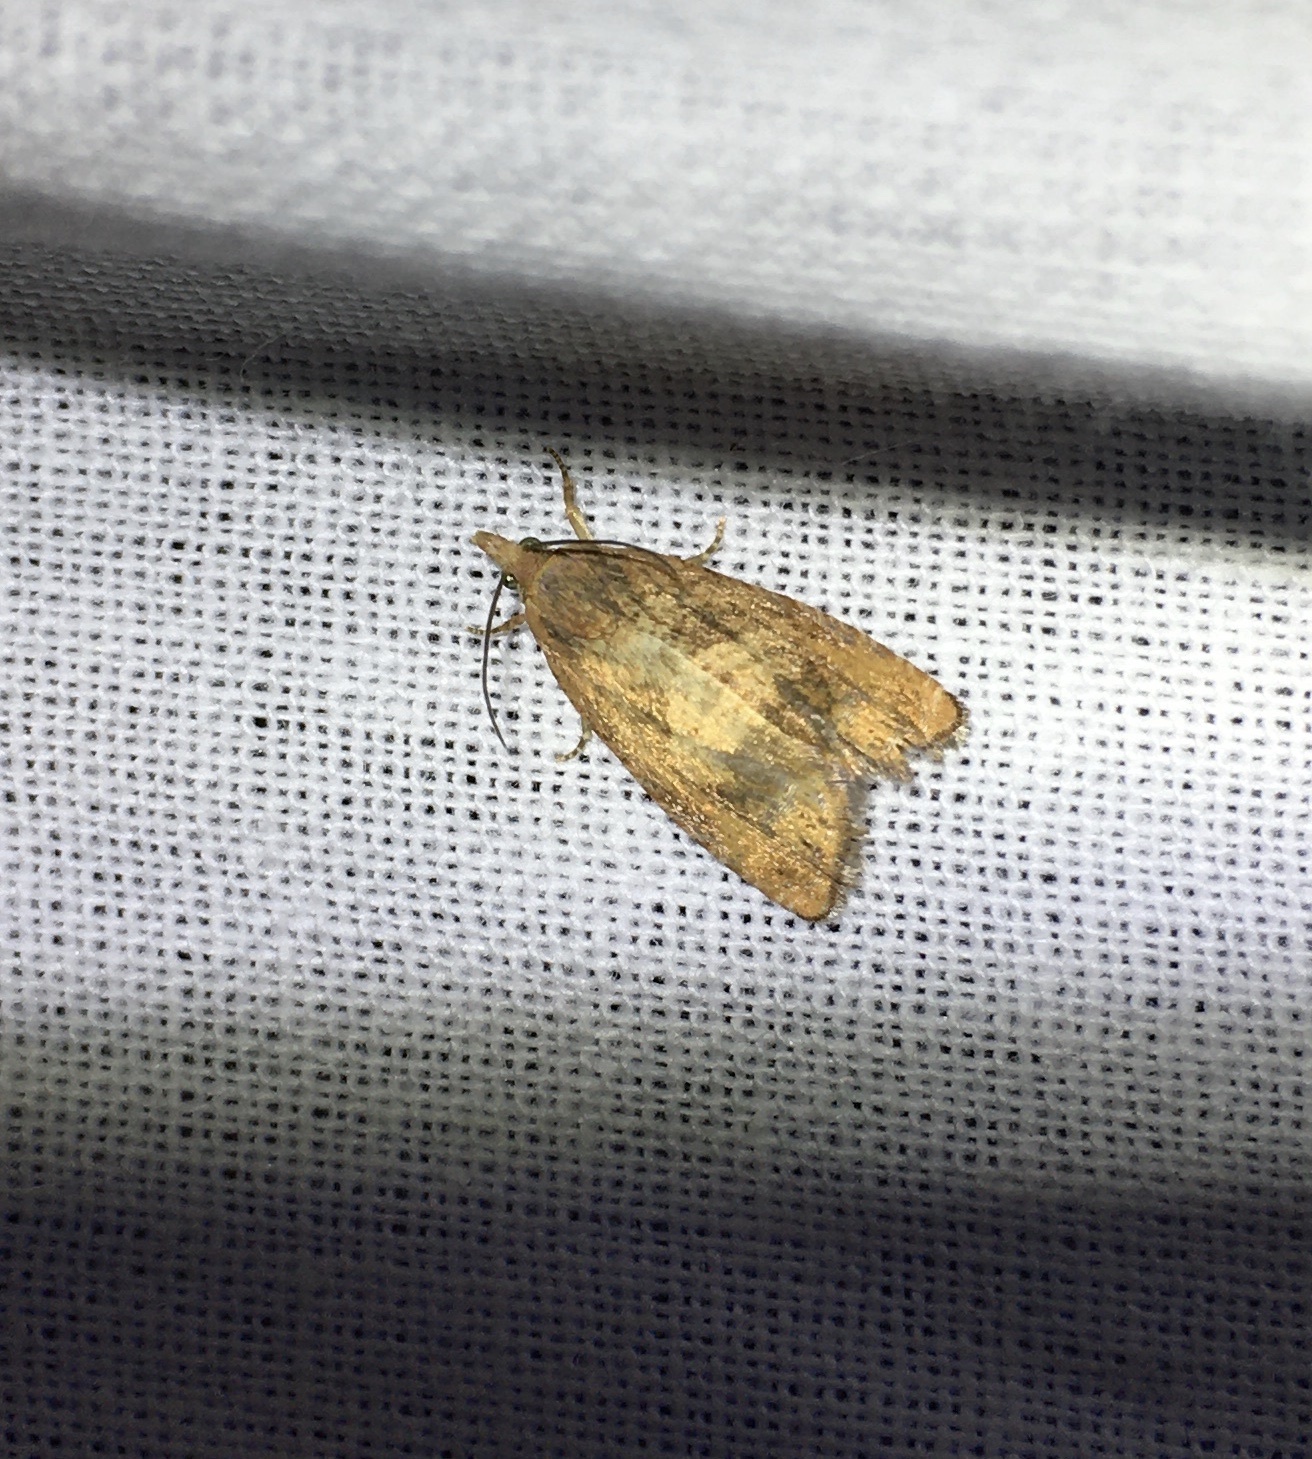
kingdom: Animalia
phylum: Arthropoda
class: Insecta
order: Lepidoptera
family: Tortricidae
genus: Cydia
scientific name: Cydia amplana
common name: Vagrant piercer
